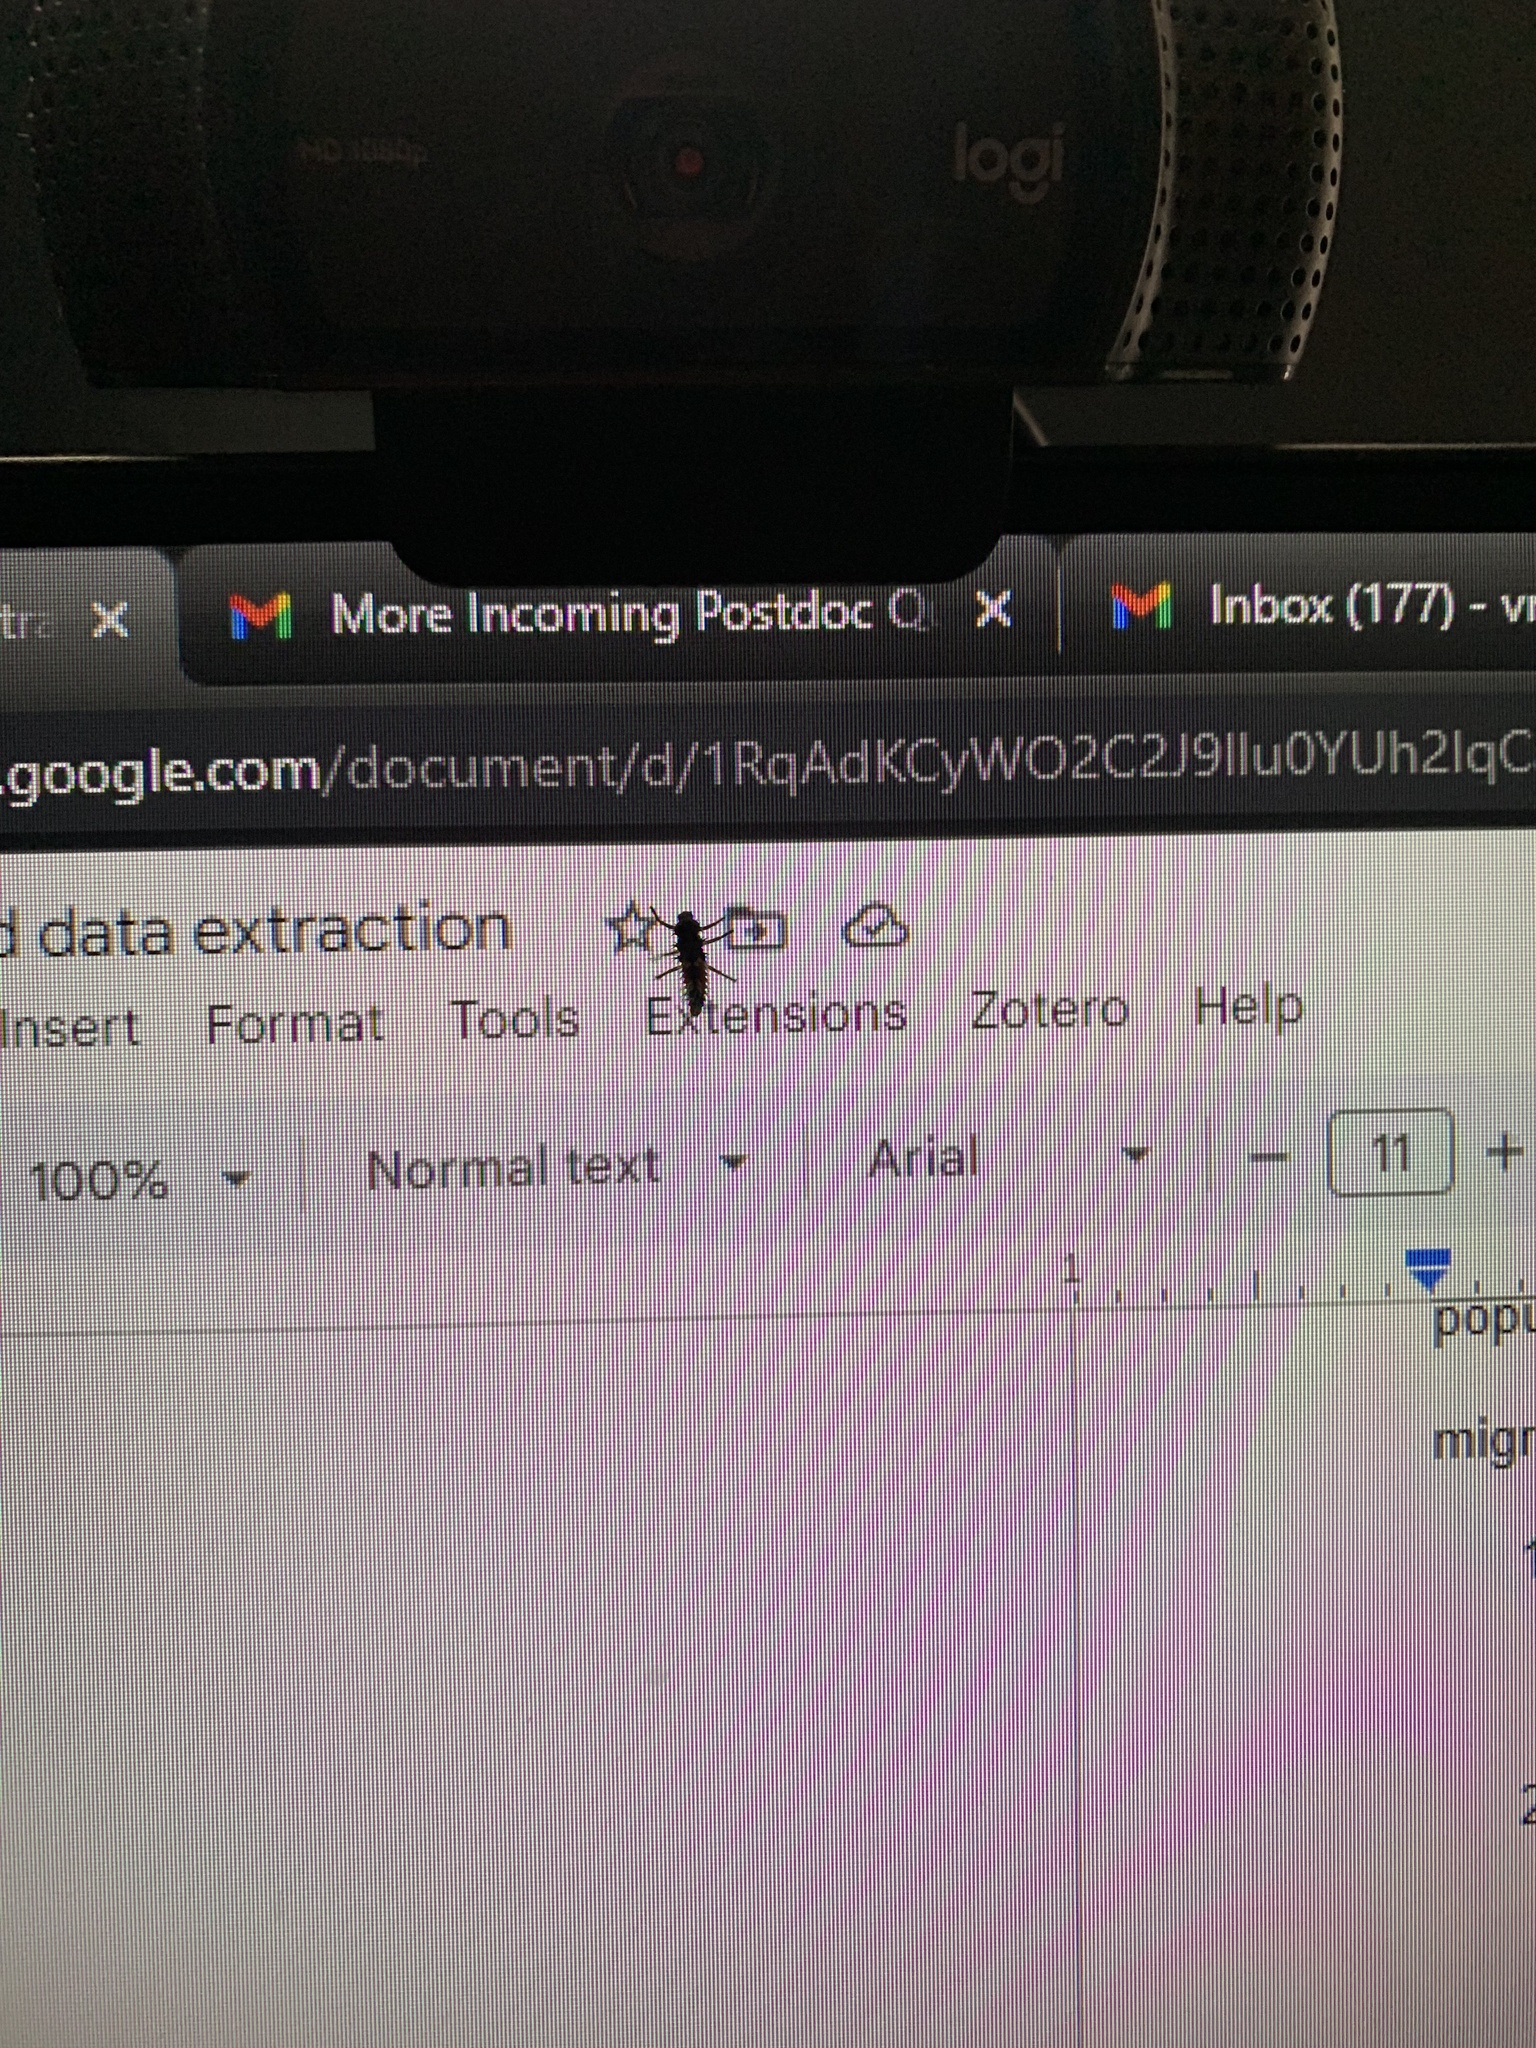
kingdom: Animalia
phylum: Arthropoda
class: Insecta
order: Coleoptera
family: Coccinellidae
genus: Harmonia
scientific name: Harmonia axyridis
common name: Harlequin ladybird
